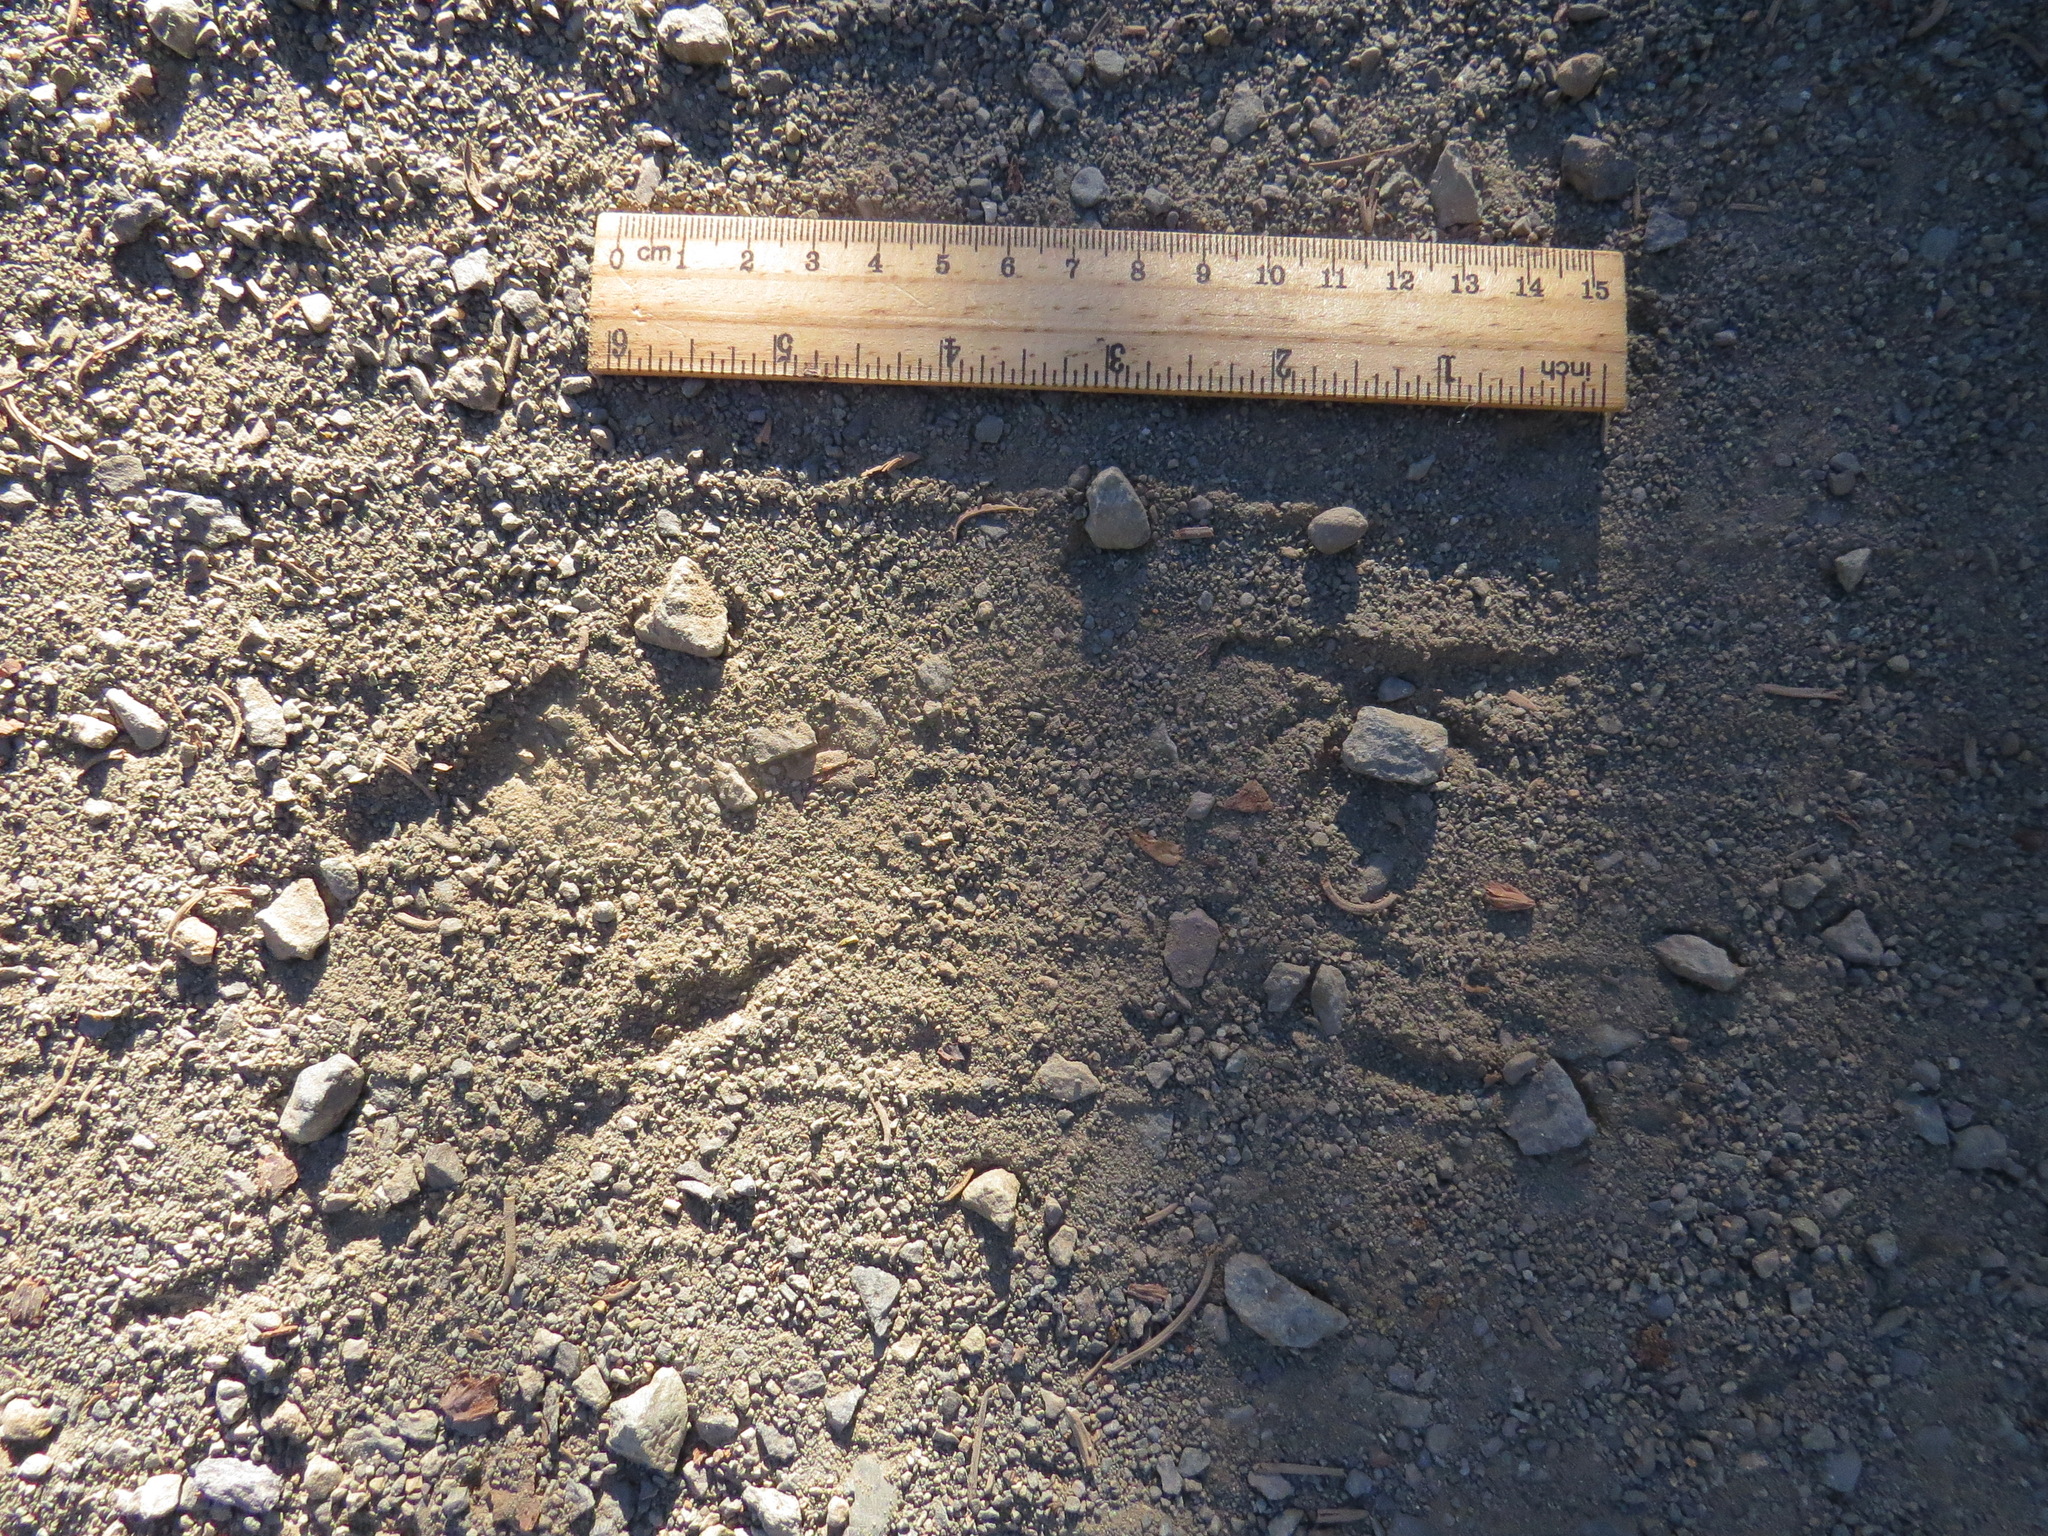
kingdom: Animalia
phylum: Chordata
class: Aves
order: Piciformes
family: Picidae
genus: Colaptes
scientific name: Colaptes auratus
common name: Northern flicker
